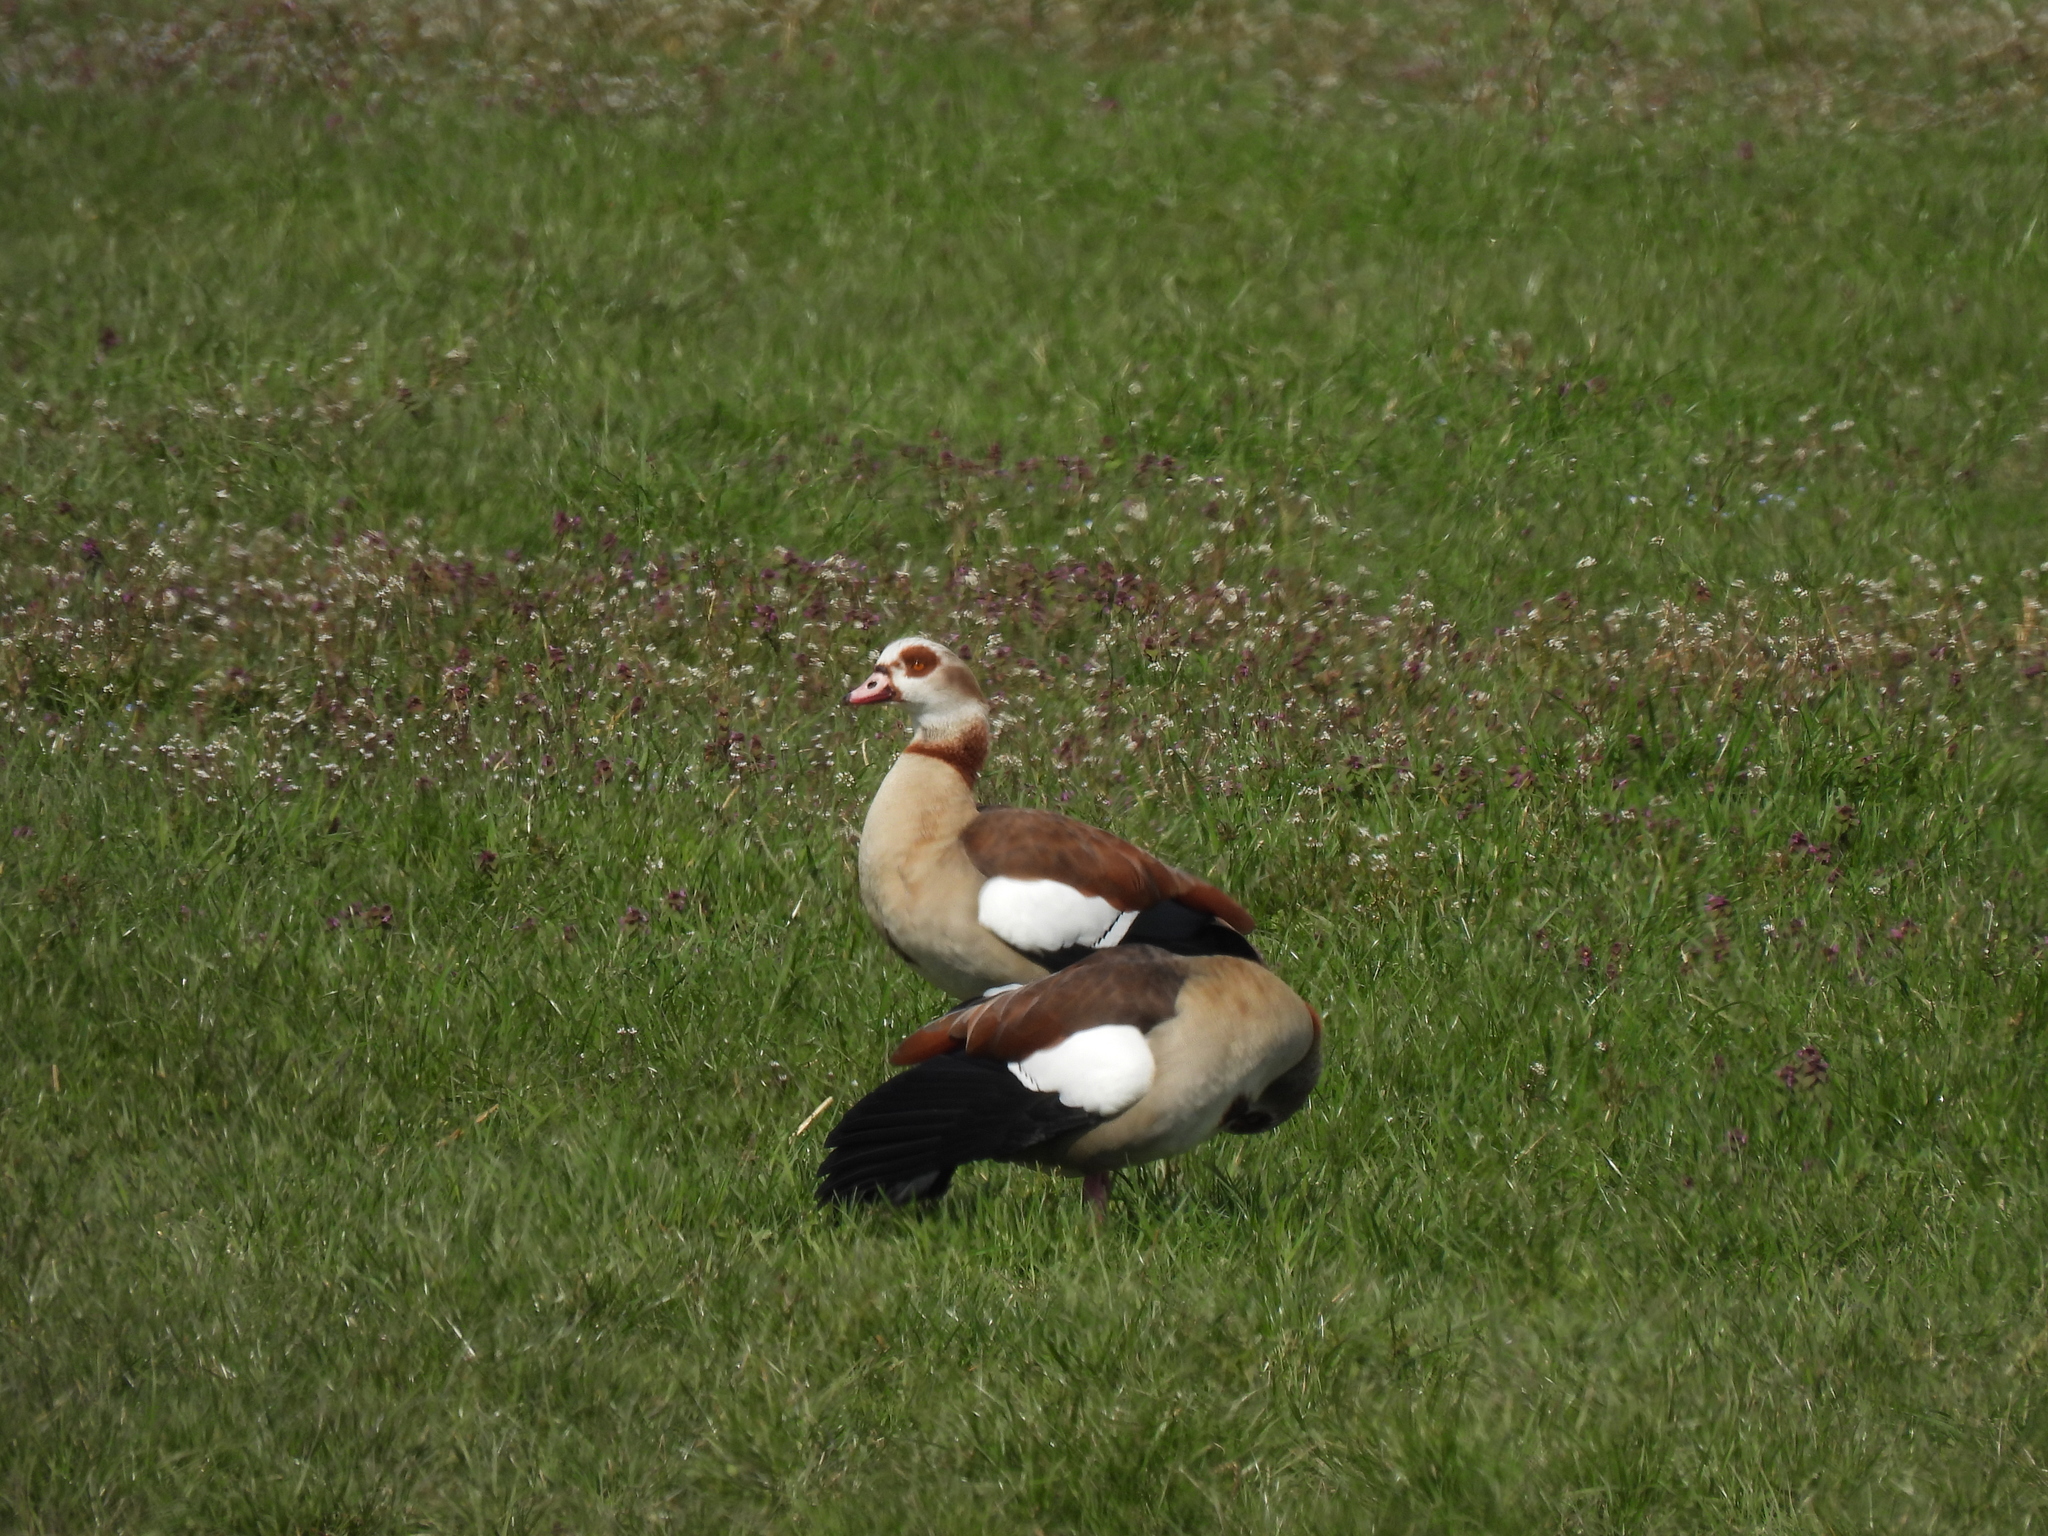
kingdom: Animalia
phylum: Chordata
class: Aves
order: Anseriformes
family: Anatidae
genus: Alopochen
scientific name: Alopochen aegyptiaca
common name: Egyptian goose
